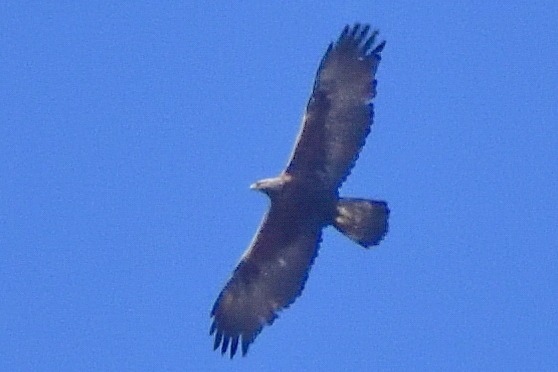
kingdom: Animalia
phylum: Chordata
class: Aves
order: Accipitriformes
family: Accipitridae
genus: Aquila
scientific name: Aquila chrysaetos
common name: Golden eagle
